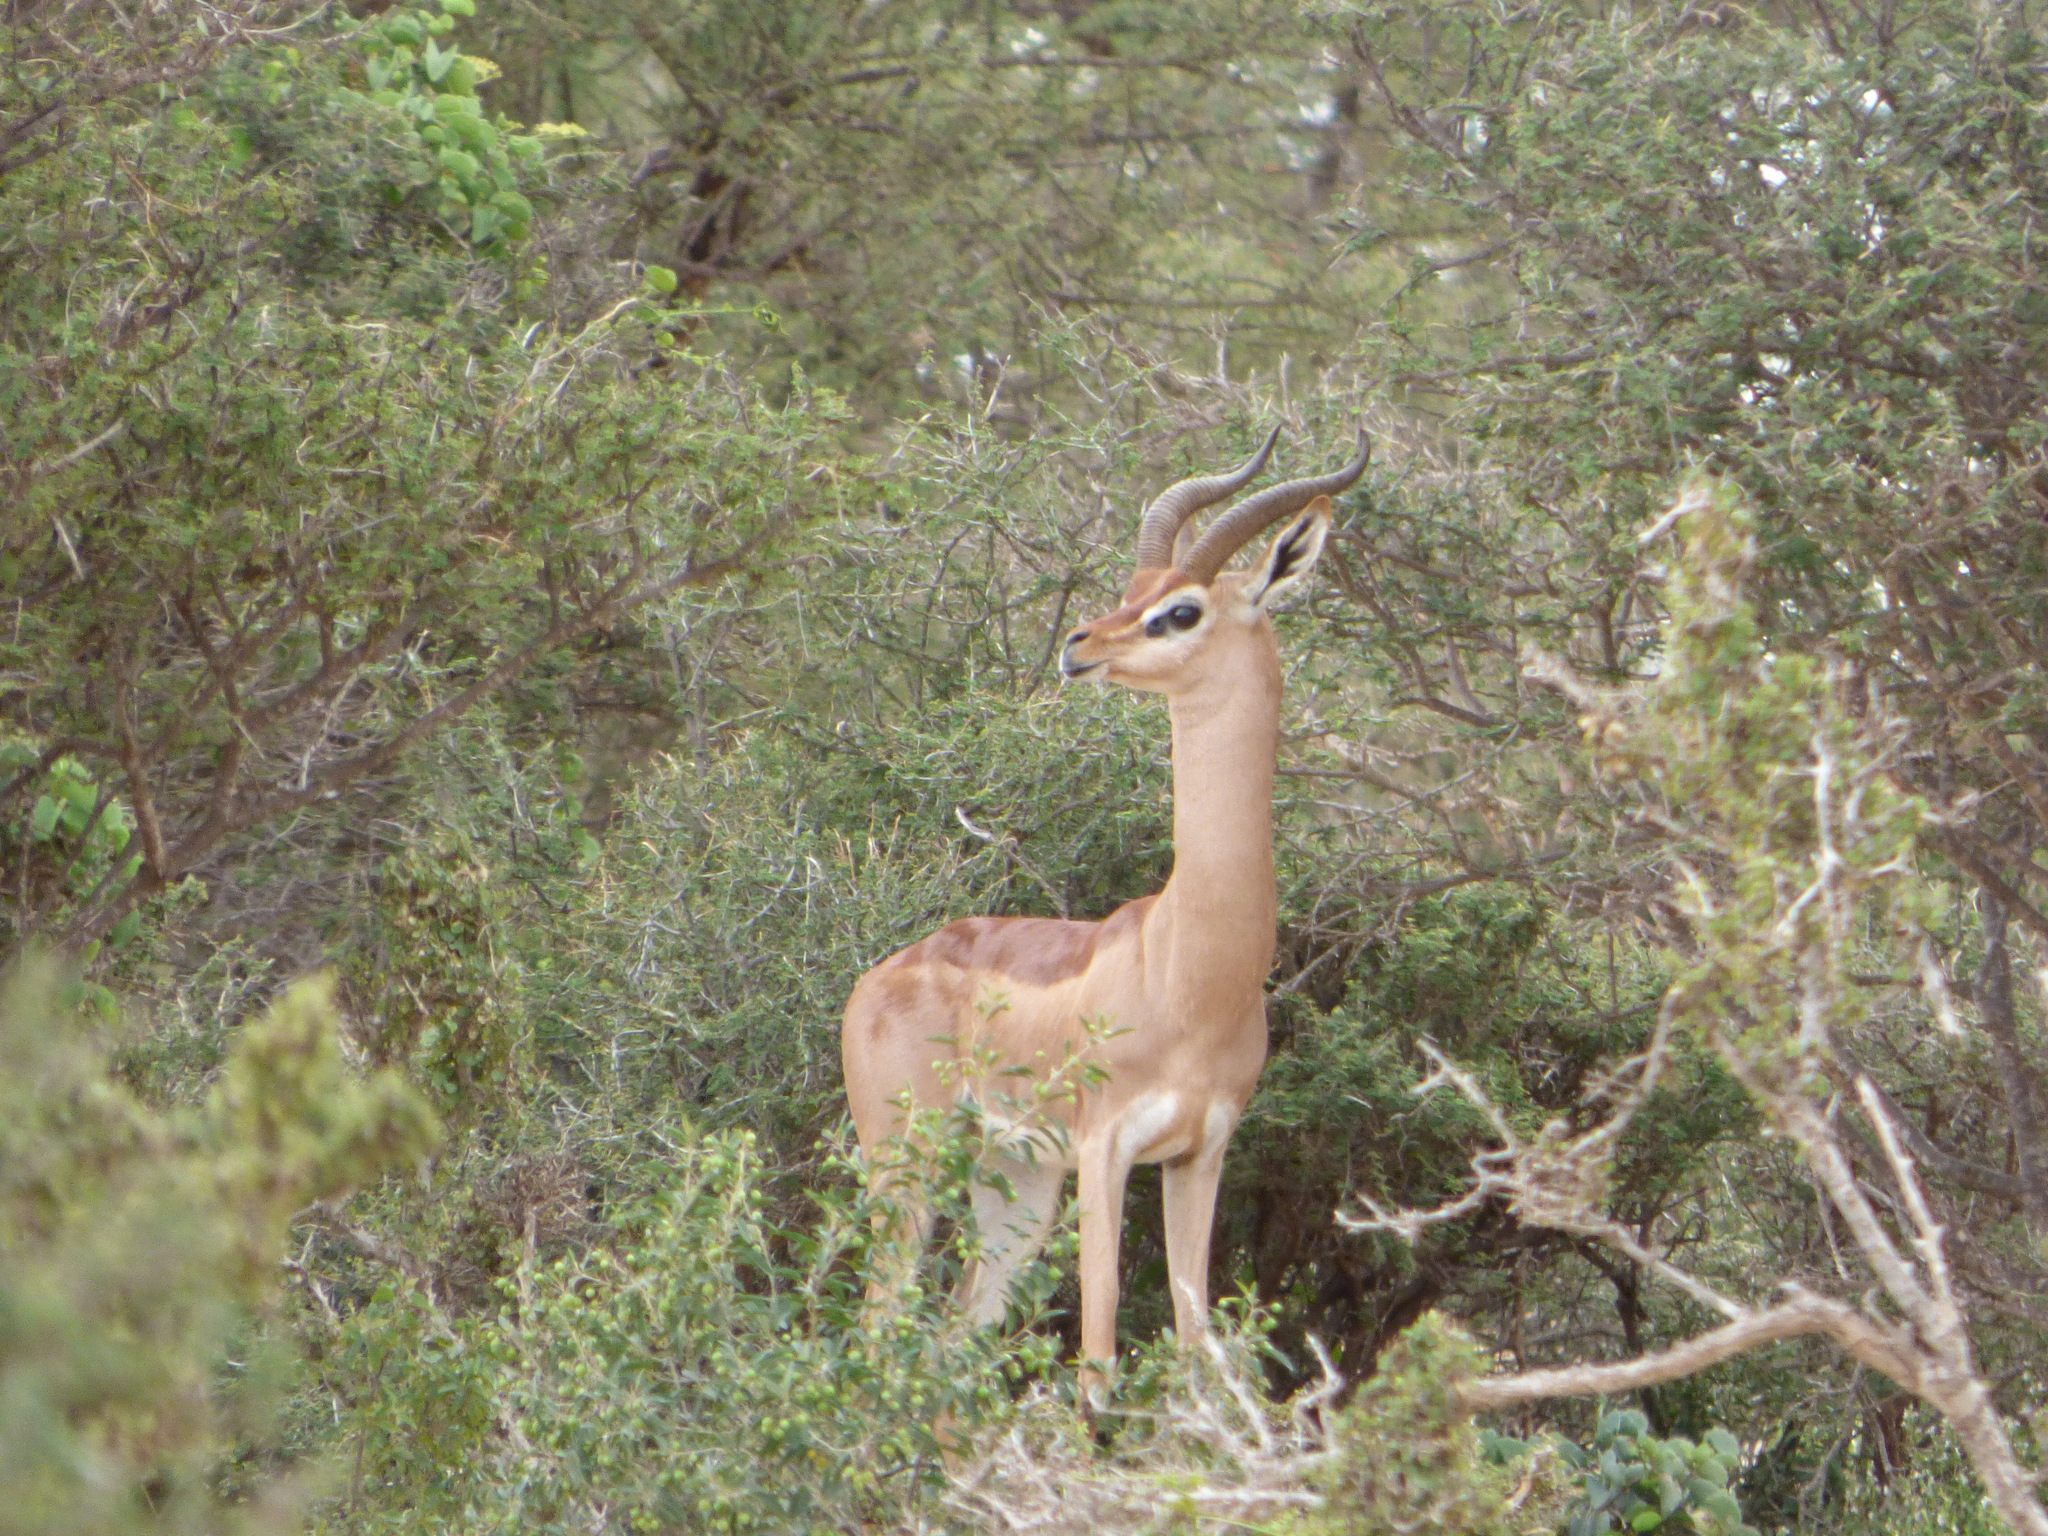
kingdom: Animalia
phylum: Chordata
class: Mammalia
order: Artiodactyla
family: Bovidae
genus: Litocranius
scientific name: Litocranius walleri
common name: Gerenuk
